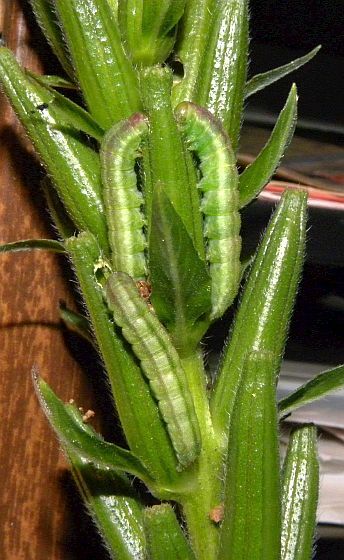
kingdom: Animalia
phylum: Arthropoda
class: Insecta
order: Lepidoptera
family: Noctuidae
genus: Schinia
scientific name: Schinia florida
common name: Primrose moth
